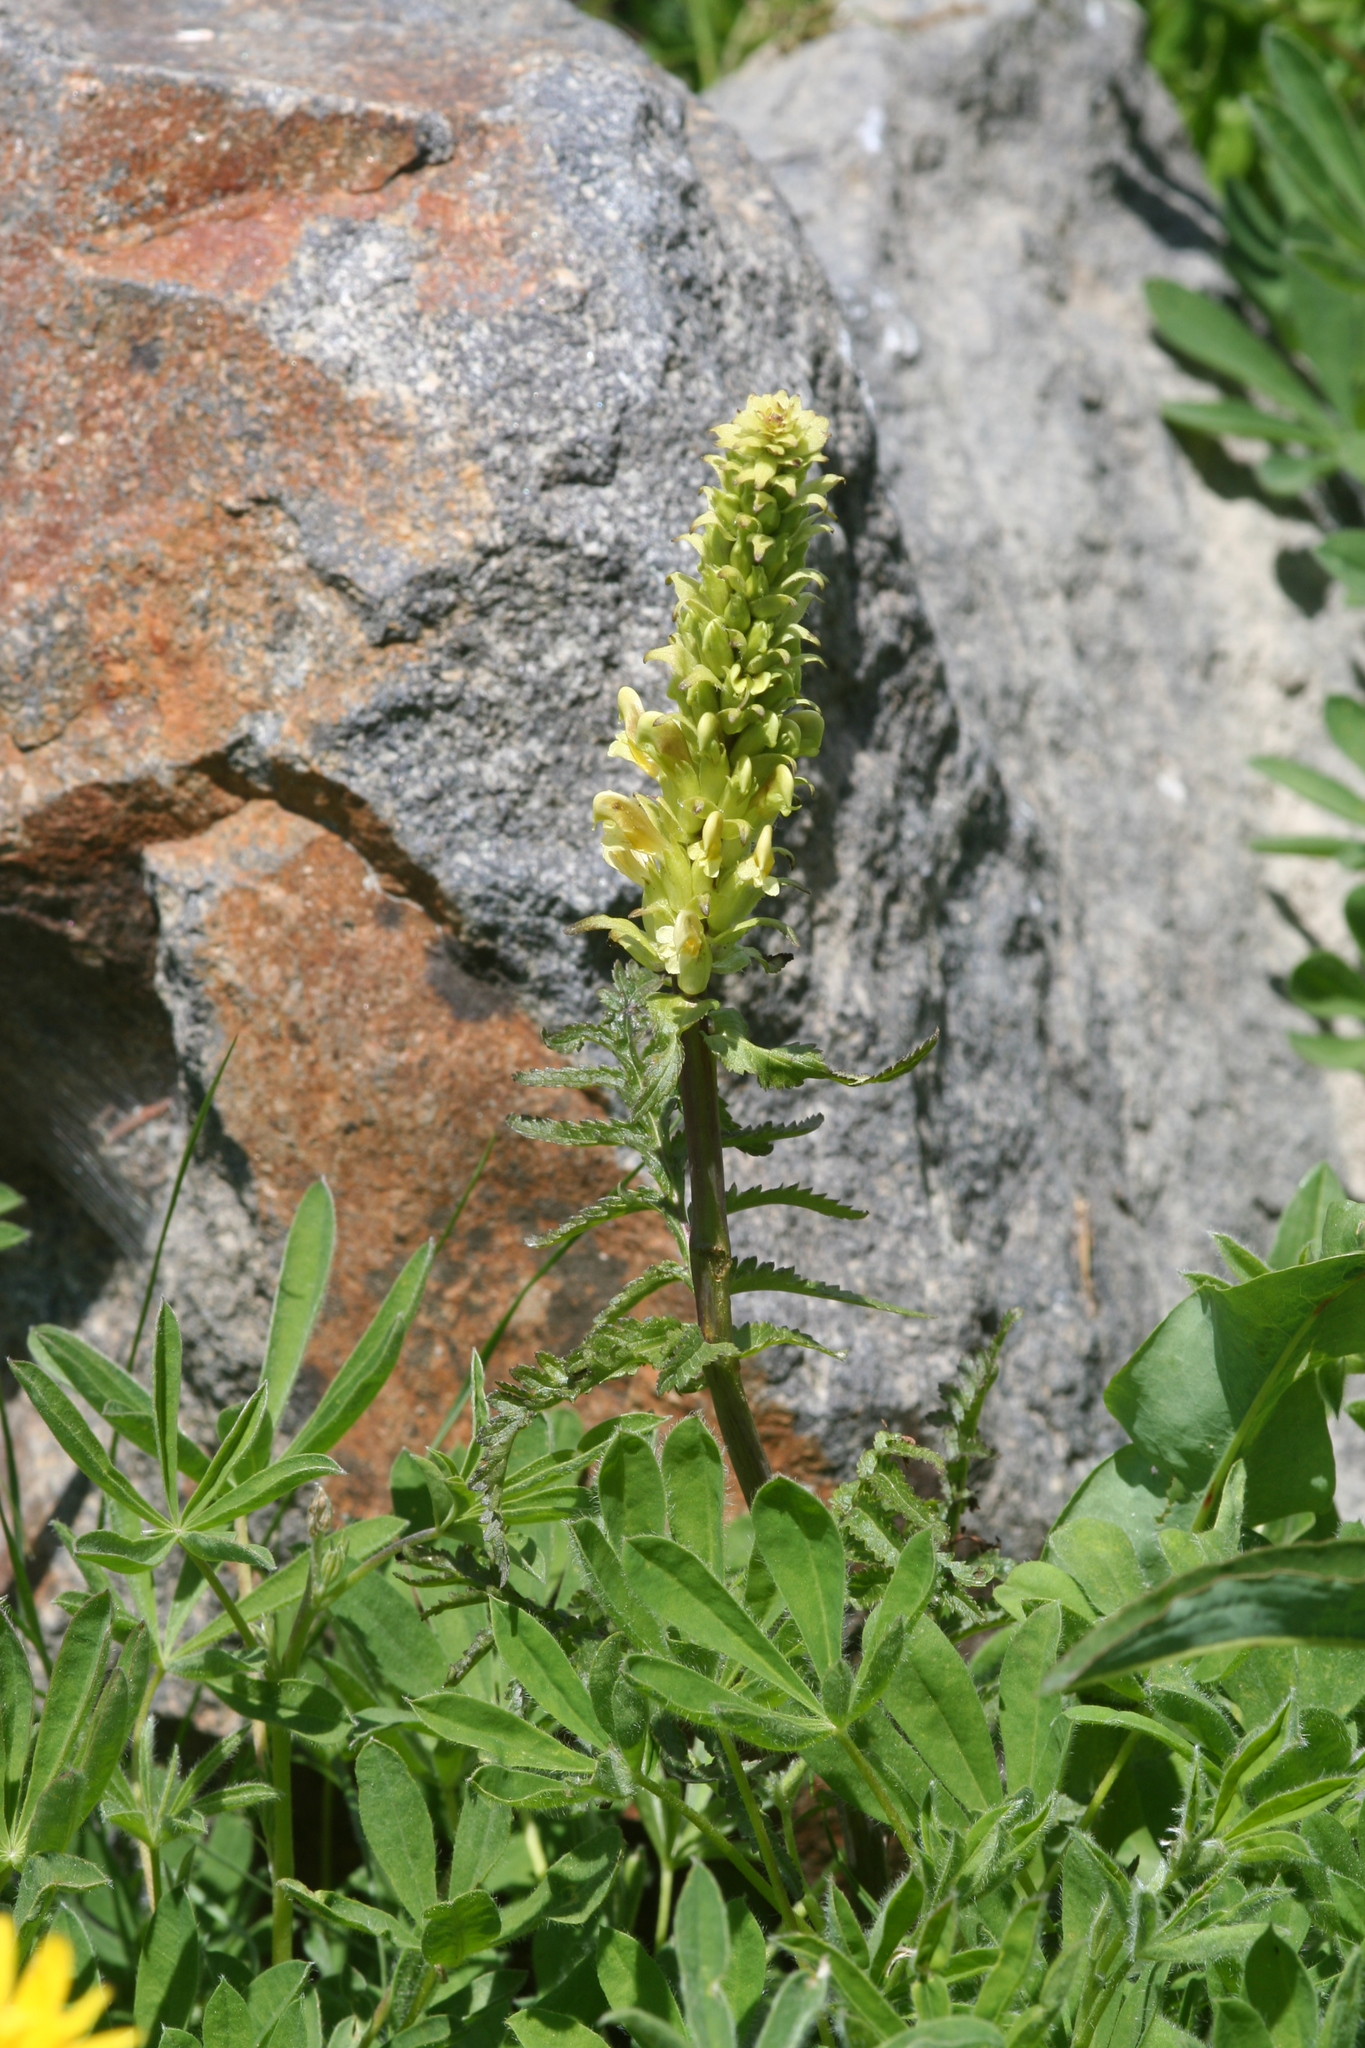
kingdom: Plantae
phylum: Tracheophyta
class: Magnoliopsida
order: Lamiales
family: Orobanchaceae
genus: Pedicularis
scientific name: Pedicularis bracteosa
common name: Bracted lousewort
